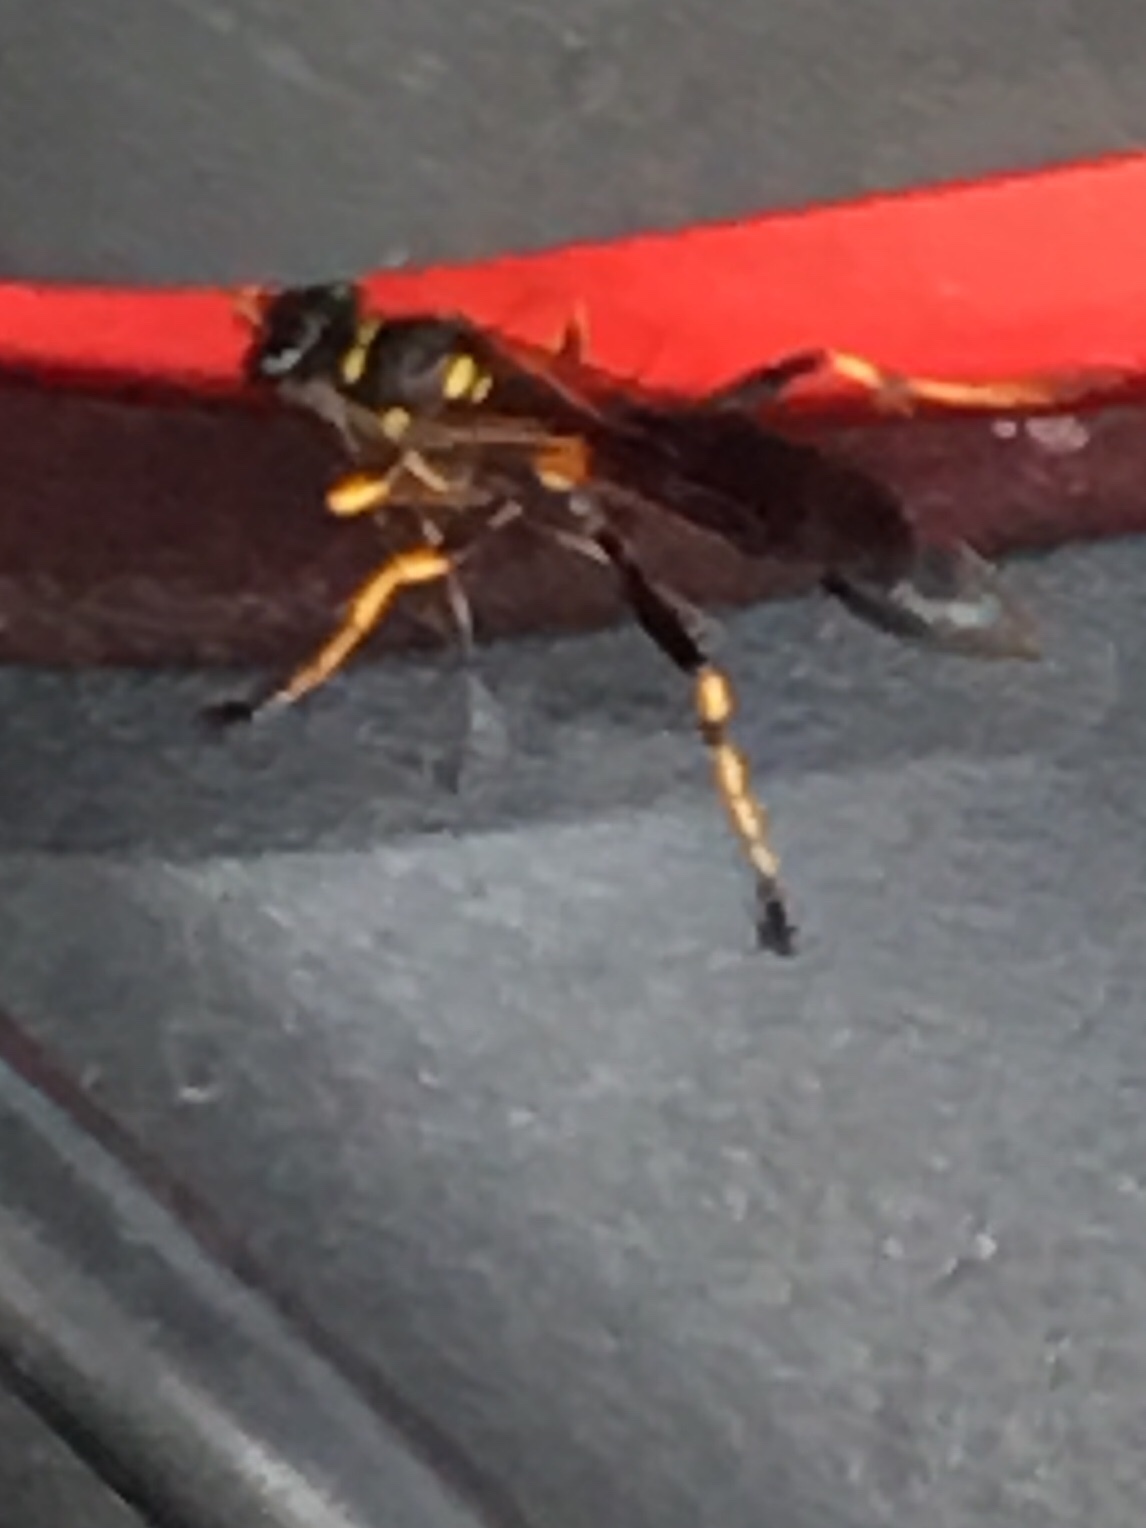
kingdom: Animalia
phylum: Arthropoda
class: Insecta
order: Hymenoptera
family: Sphecidae
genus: Sceliphron
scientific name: Sceliphron caementarium
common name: Mud dauber
